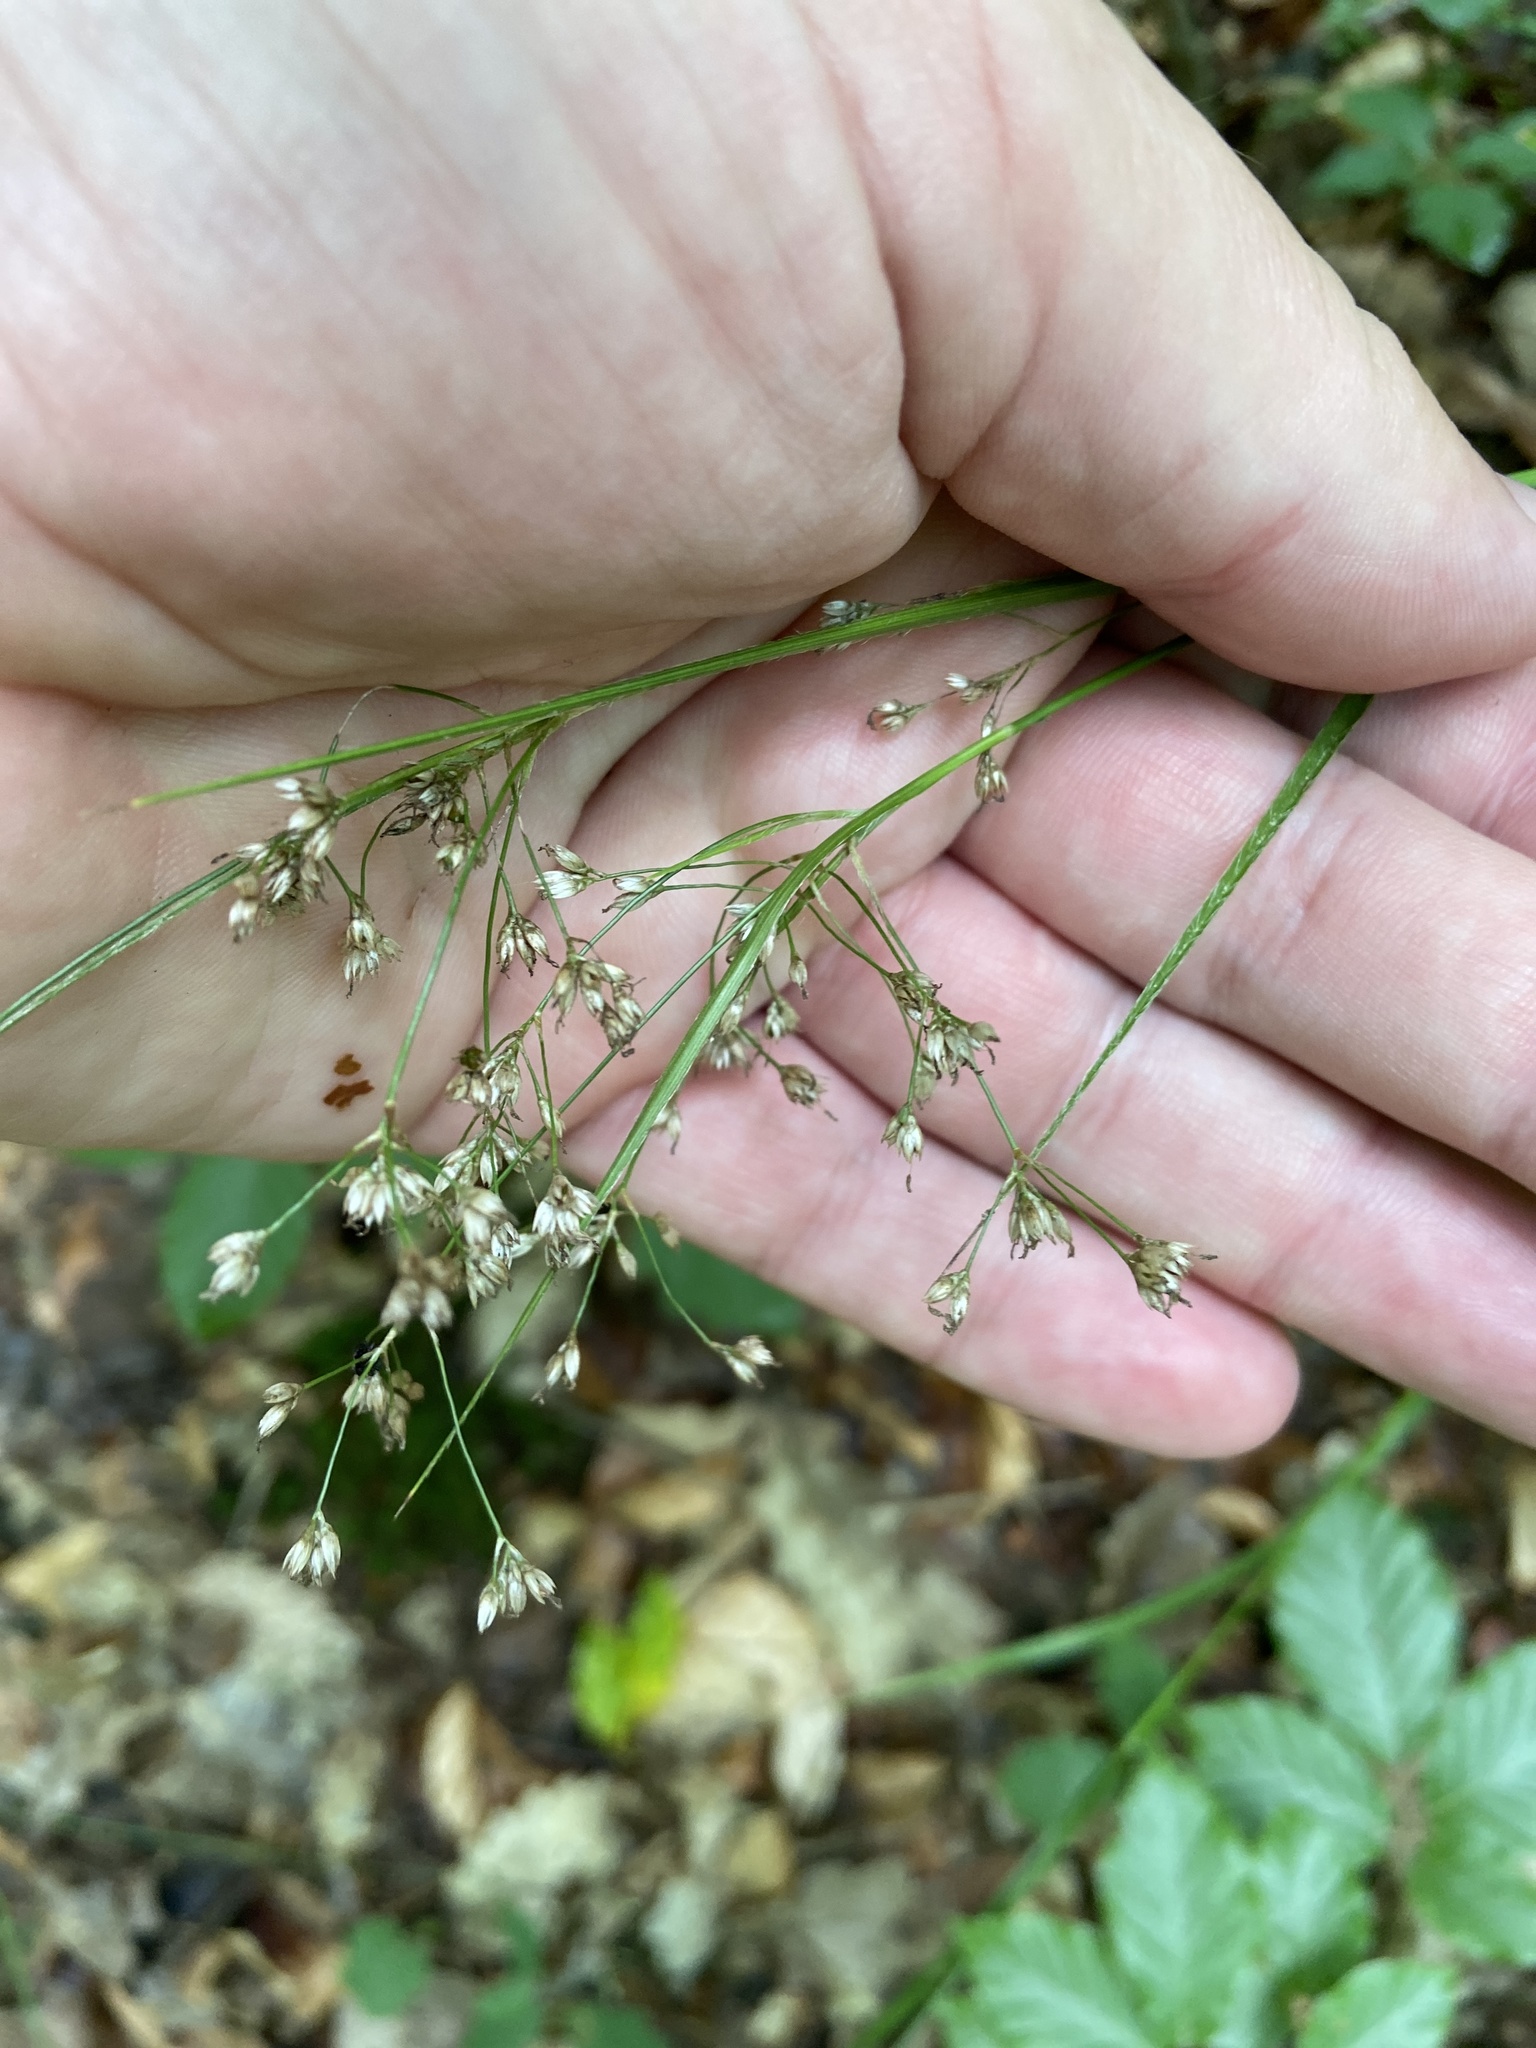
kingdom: Plantae
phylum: Tracheophyta
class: Liliopsida
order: Poales
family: Juncaceae
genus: Luzula
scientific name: Luzula luzuloides
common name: White wood-rush
